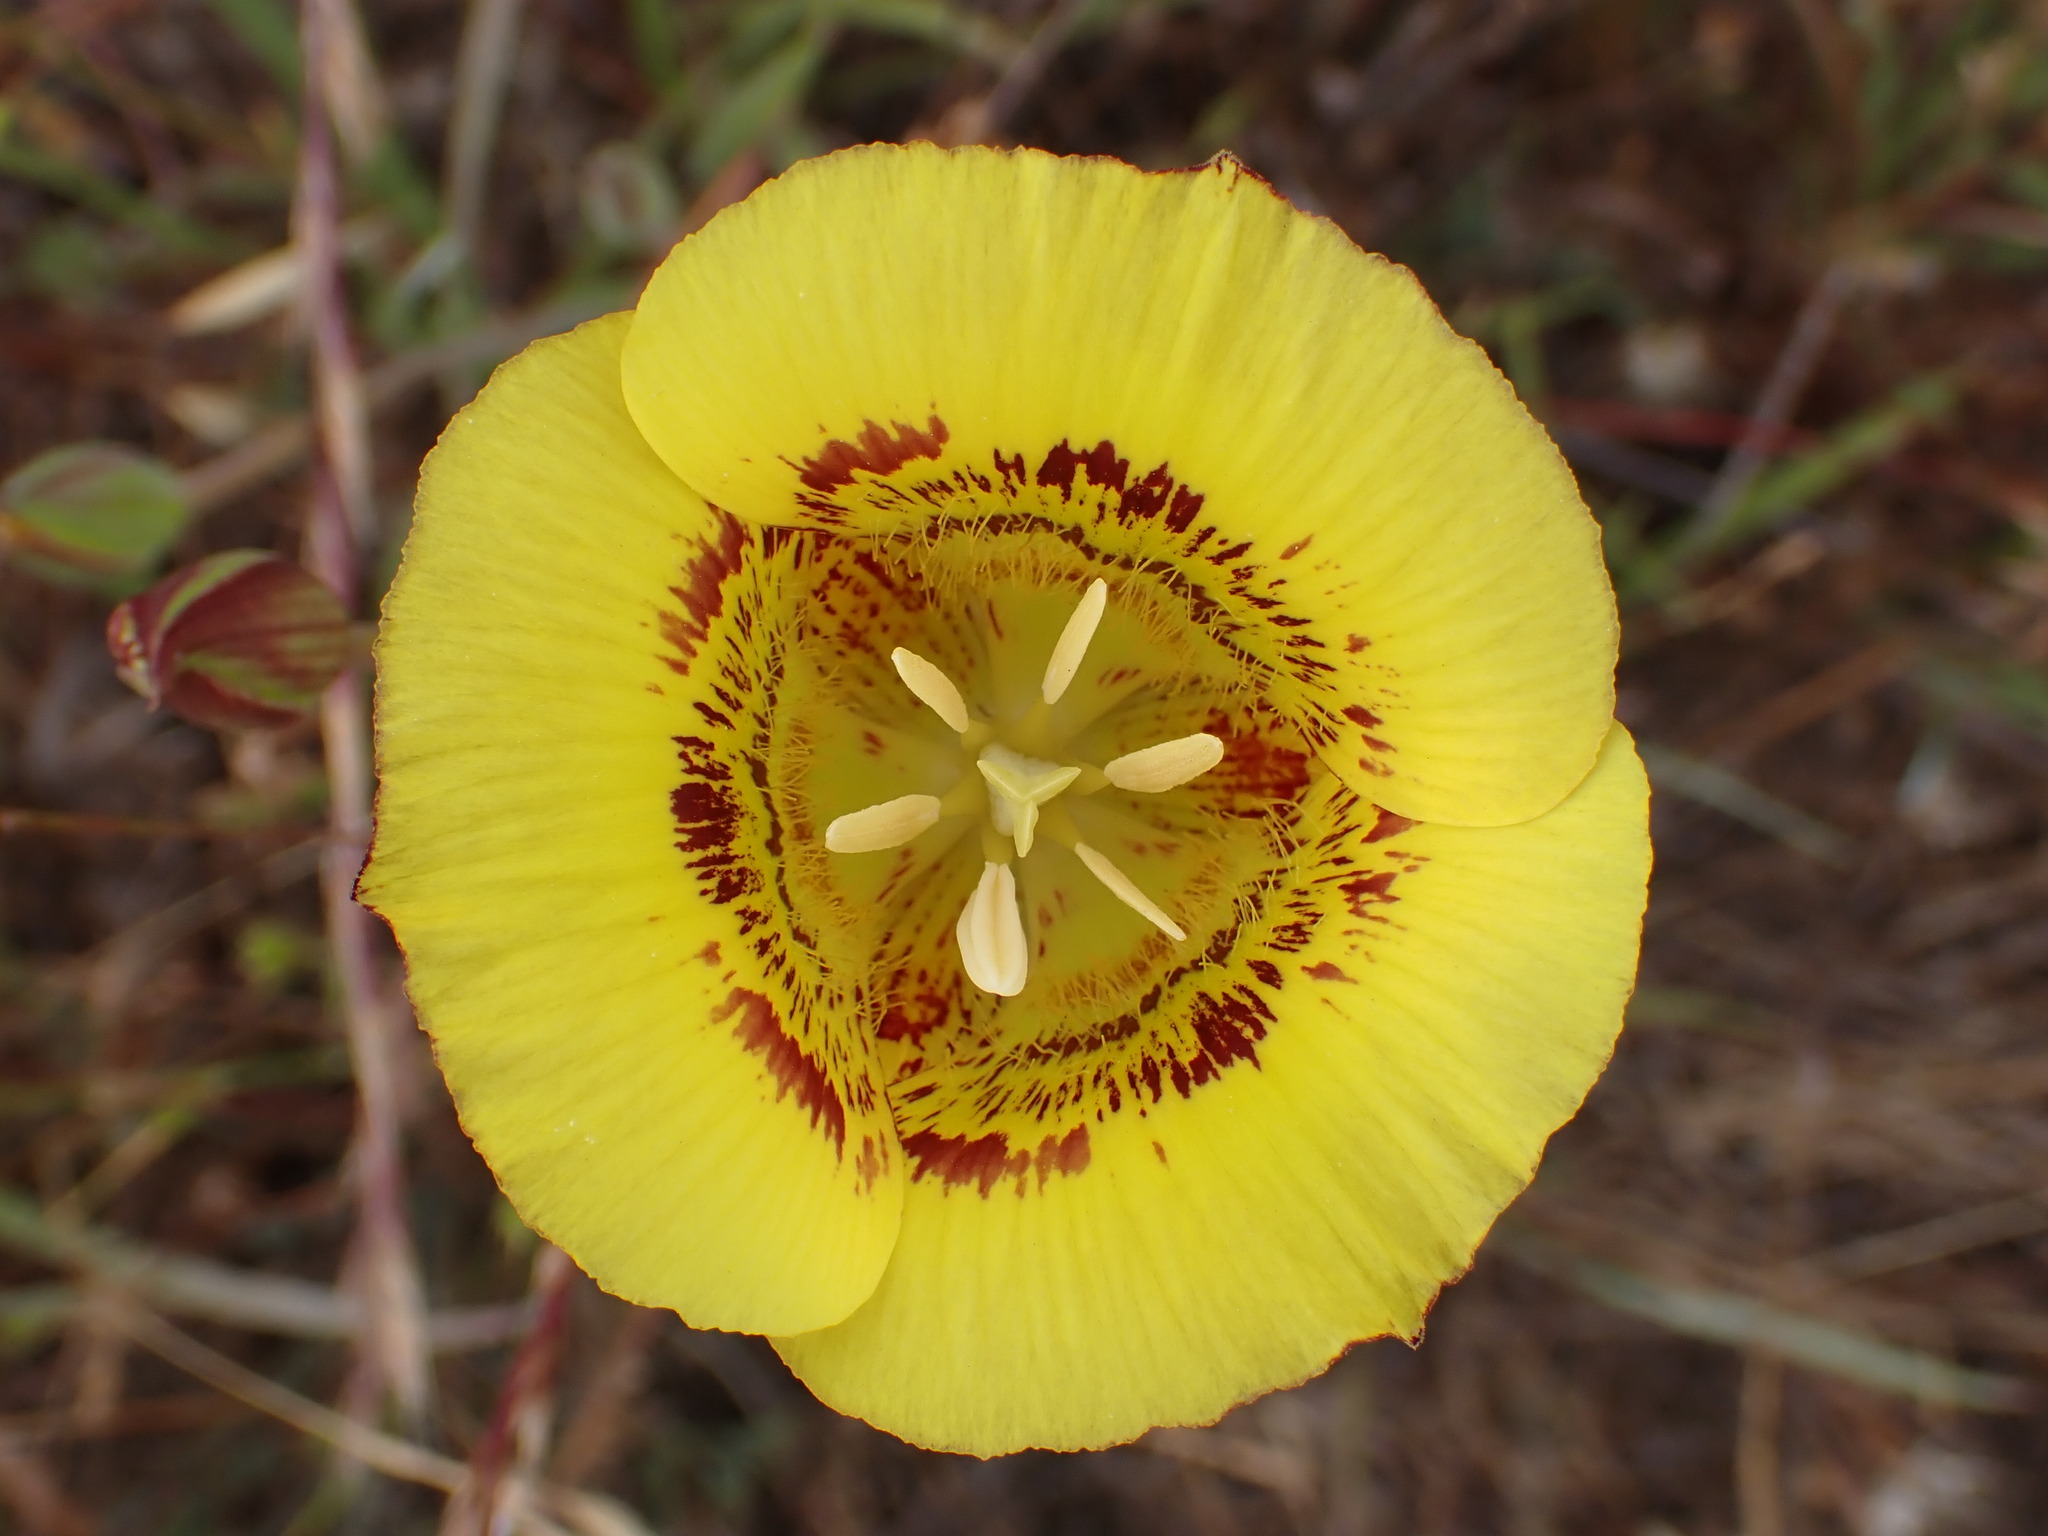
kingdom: Plantae
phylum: Tracheophyta
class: Liliopsida
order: Liliales
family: Liliaceae
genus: Calochortus
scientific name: Calochortus luteus
